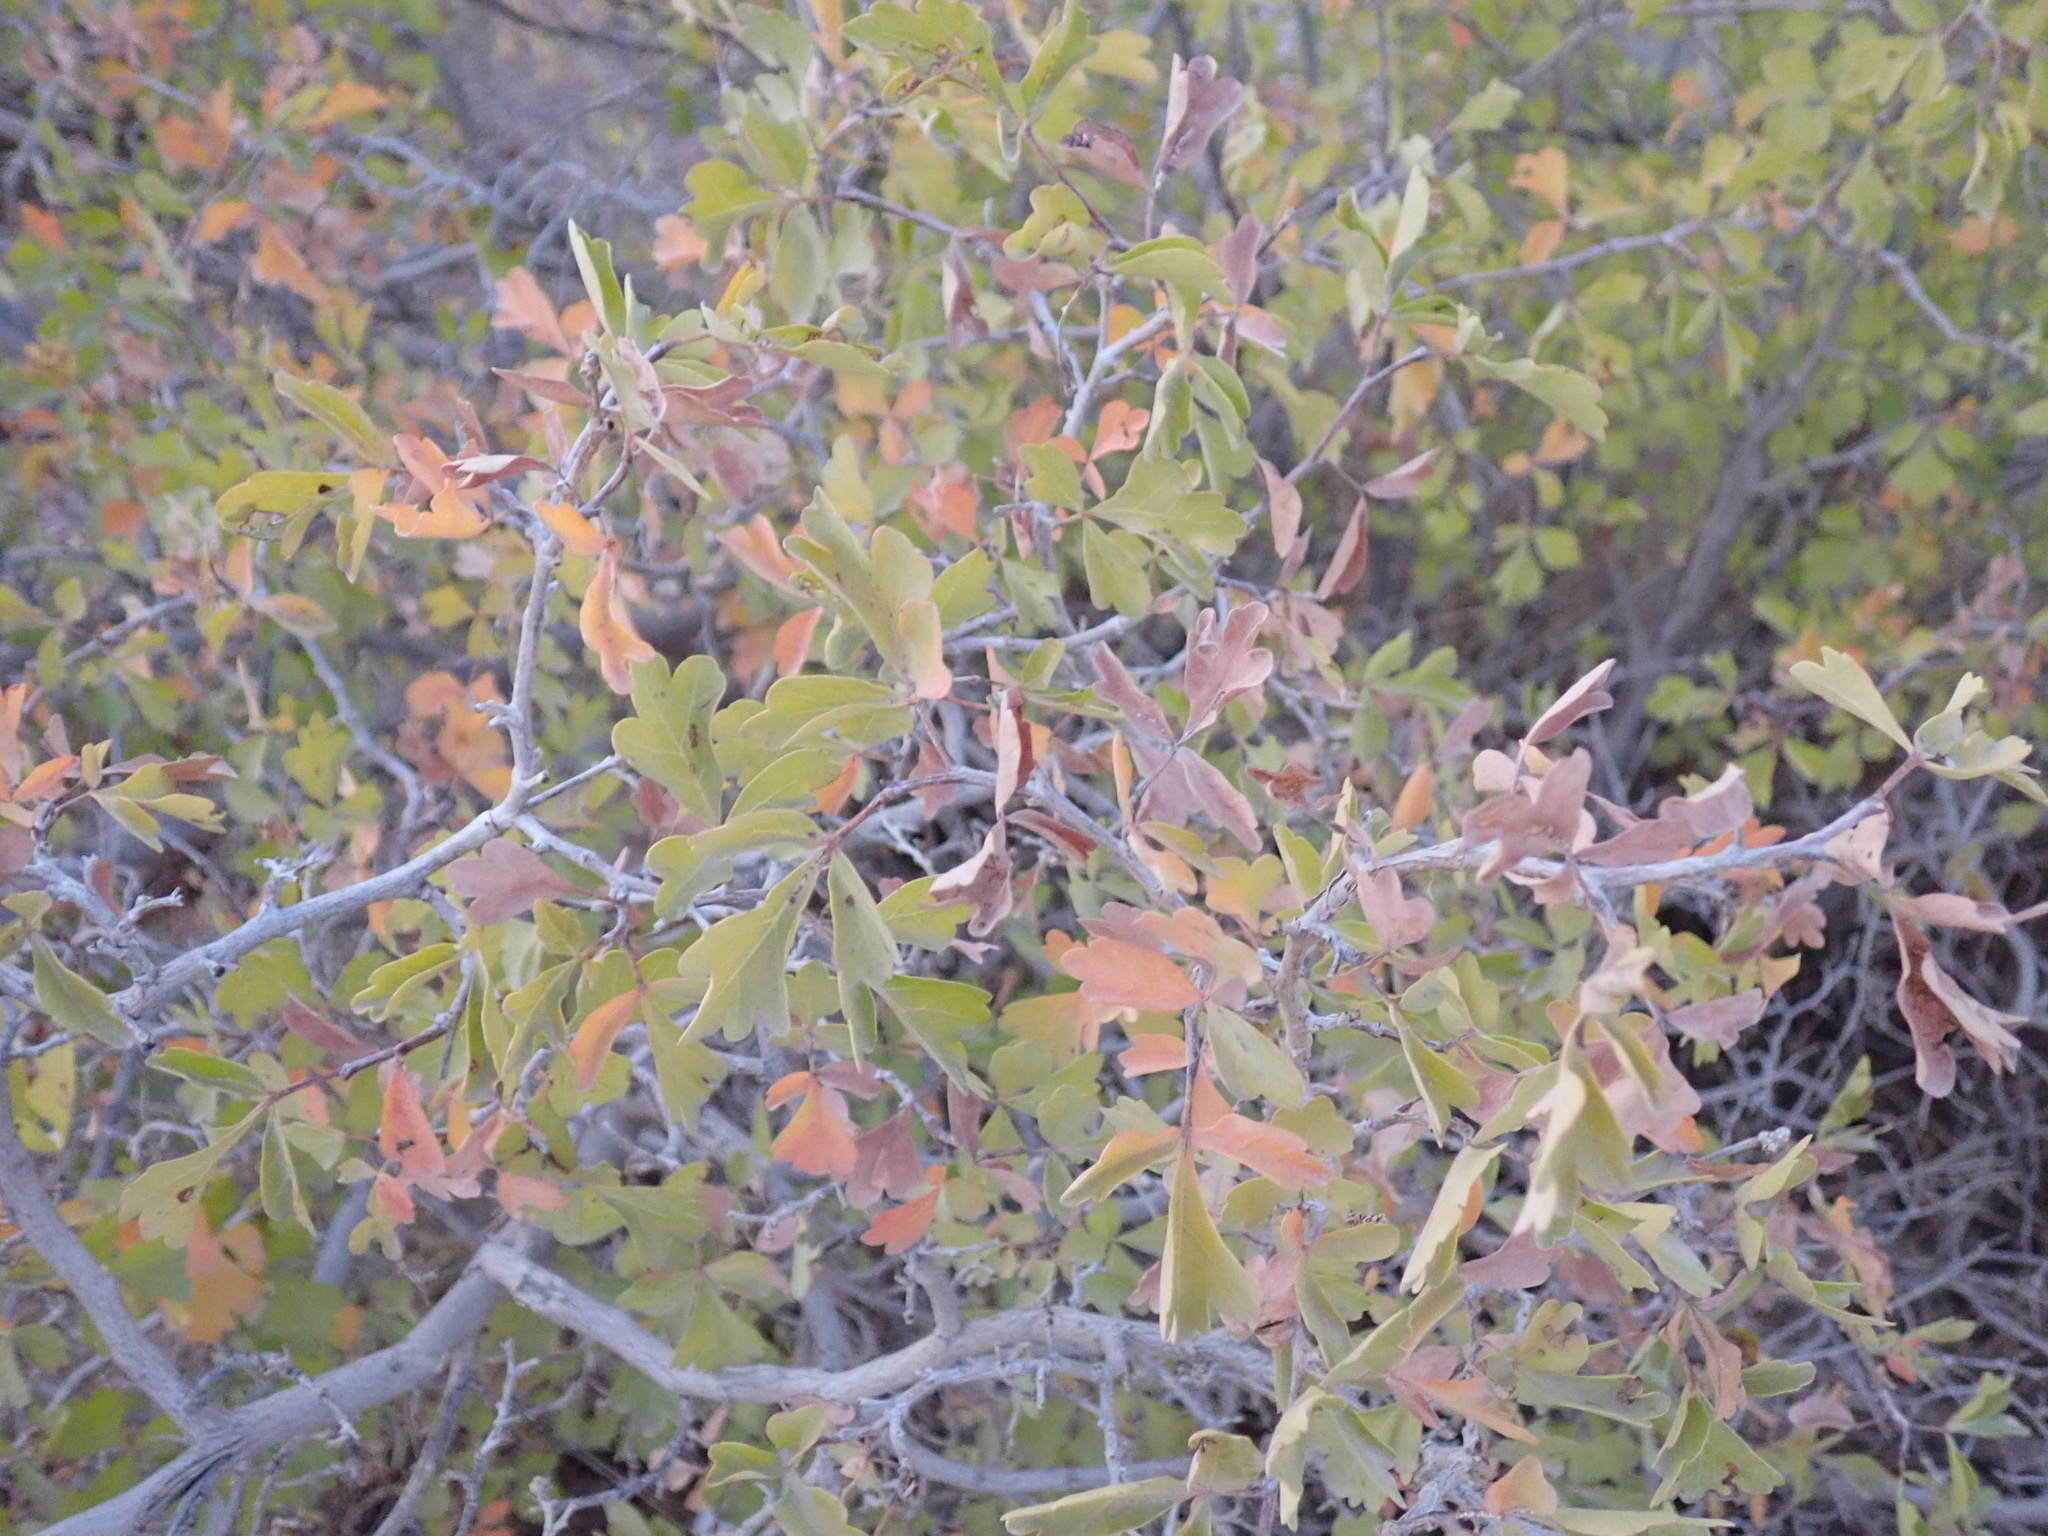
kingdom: Plantae
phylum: Tracheophyta
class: Magnoliopsida
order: Sapindales
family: Anacardiaceae
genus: Rhus
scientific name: Rhus aromatica
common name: Aromatic sumac
